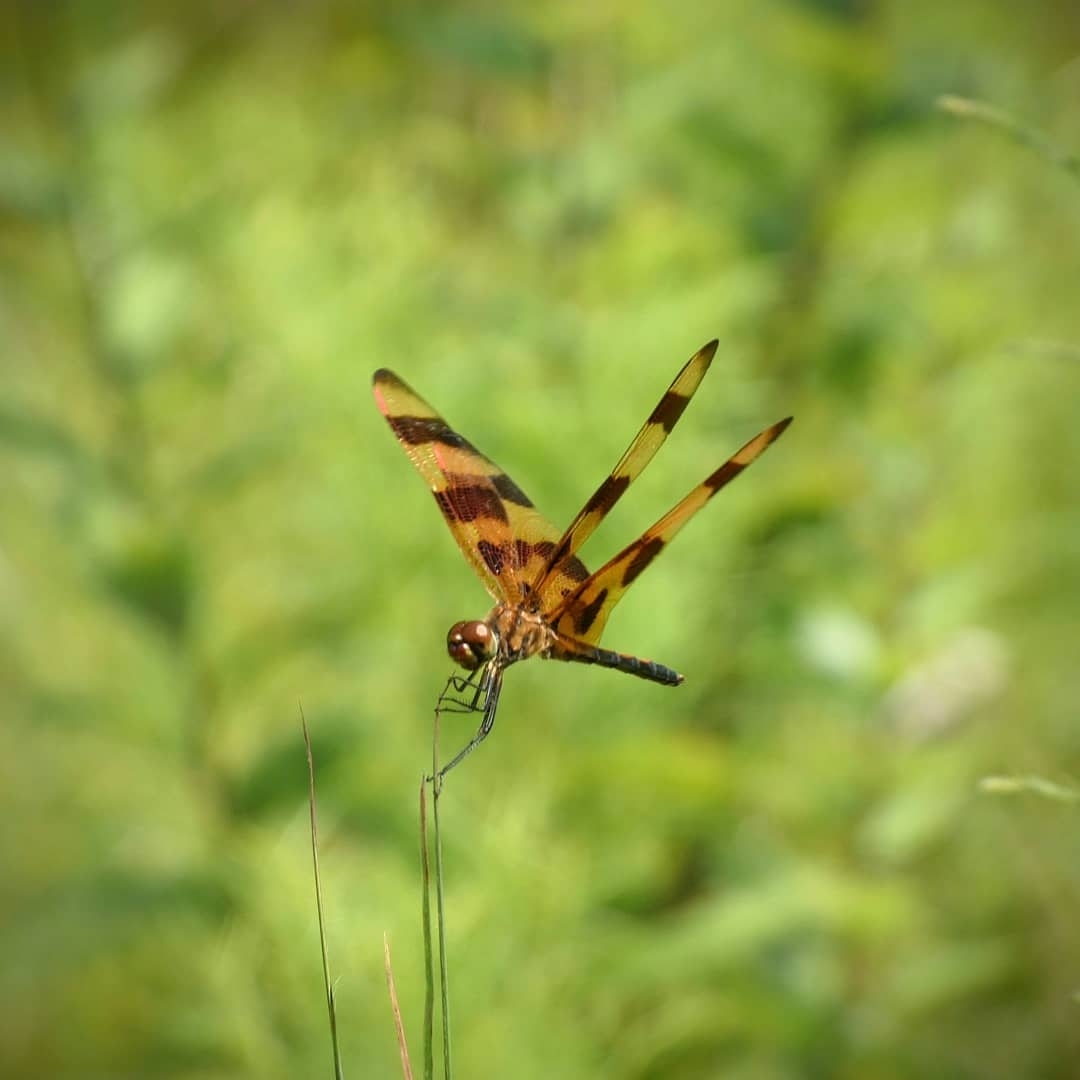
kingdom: Animalia
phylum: Arthropoda
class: Insecta
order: Odonata
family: Libellulidae
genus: Celithemis
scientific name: Celithemis eponina
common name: Halloween pennant
